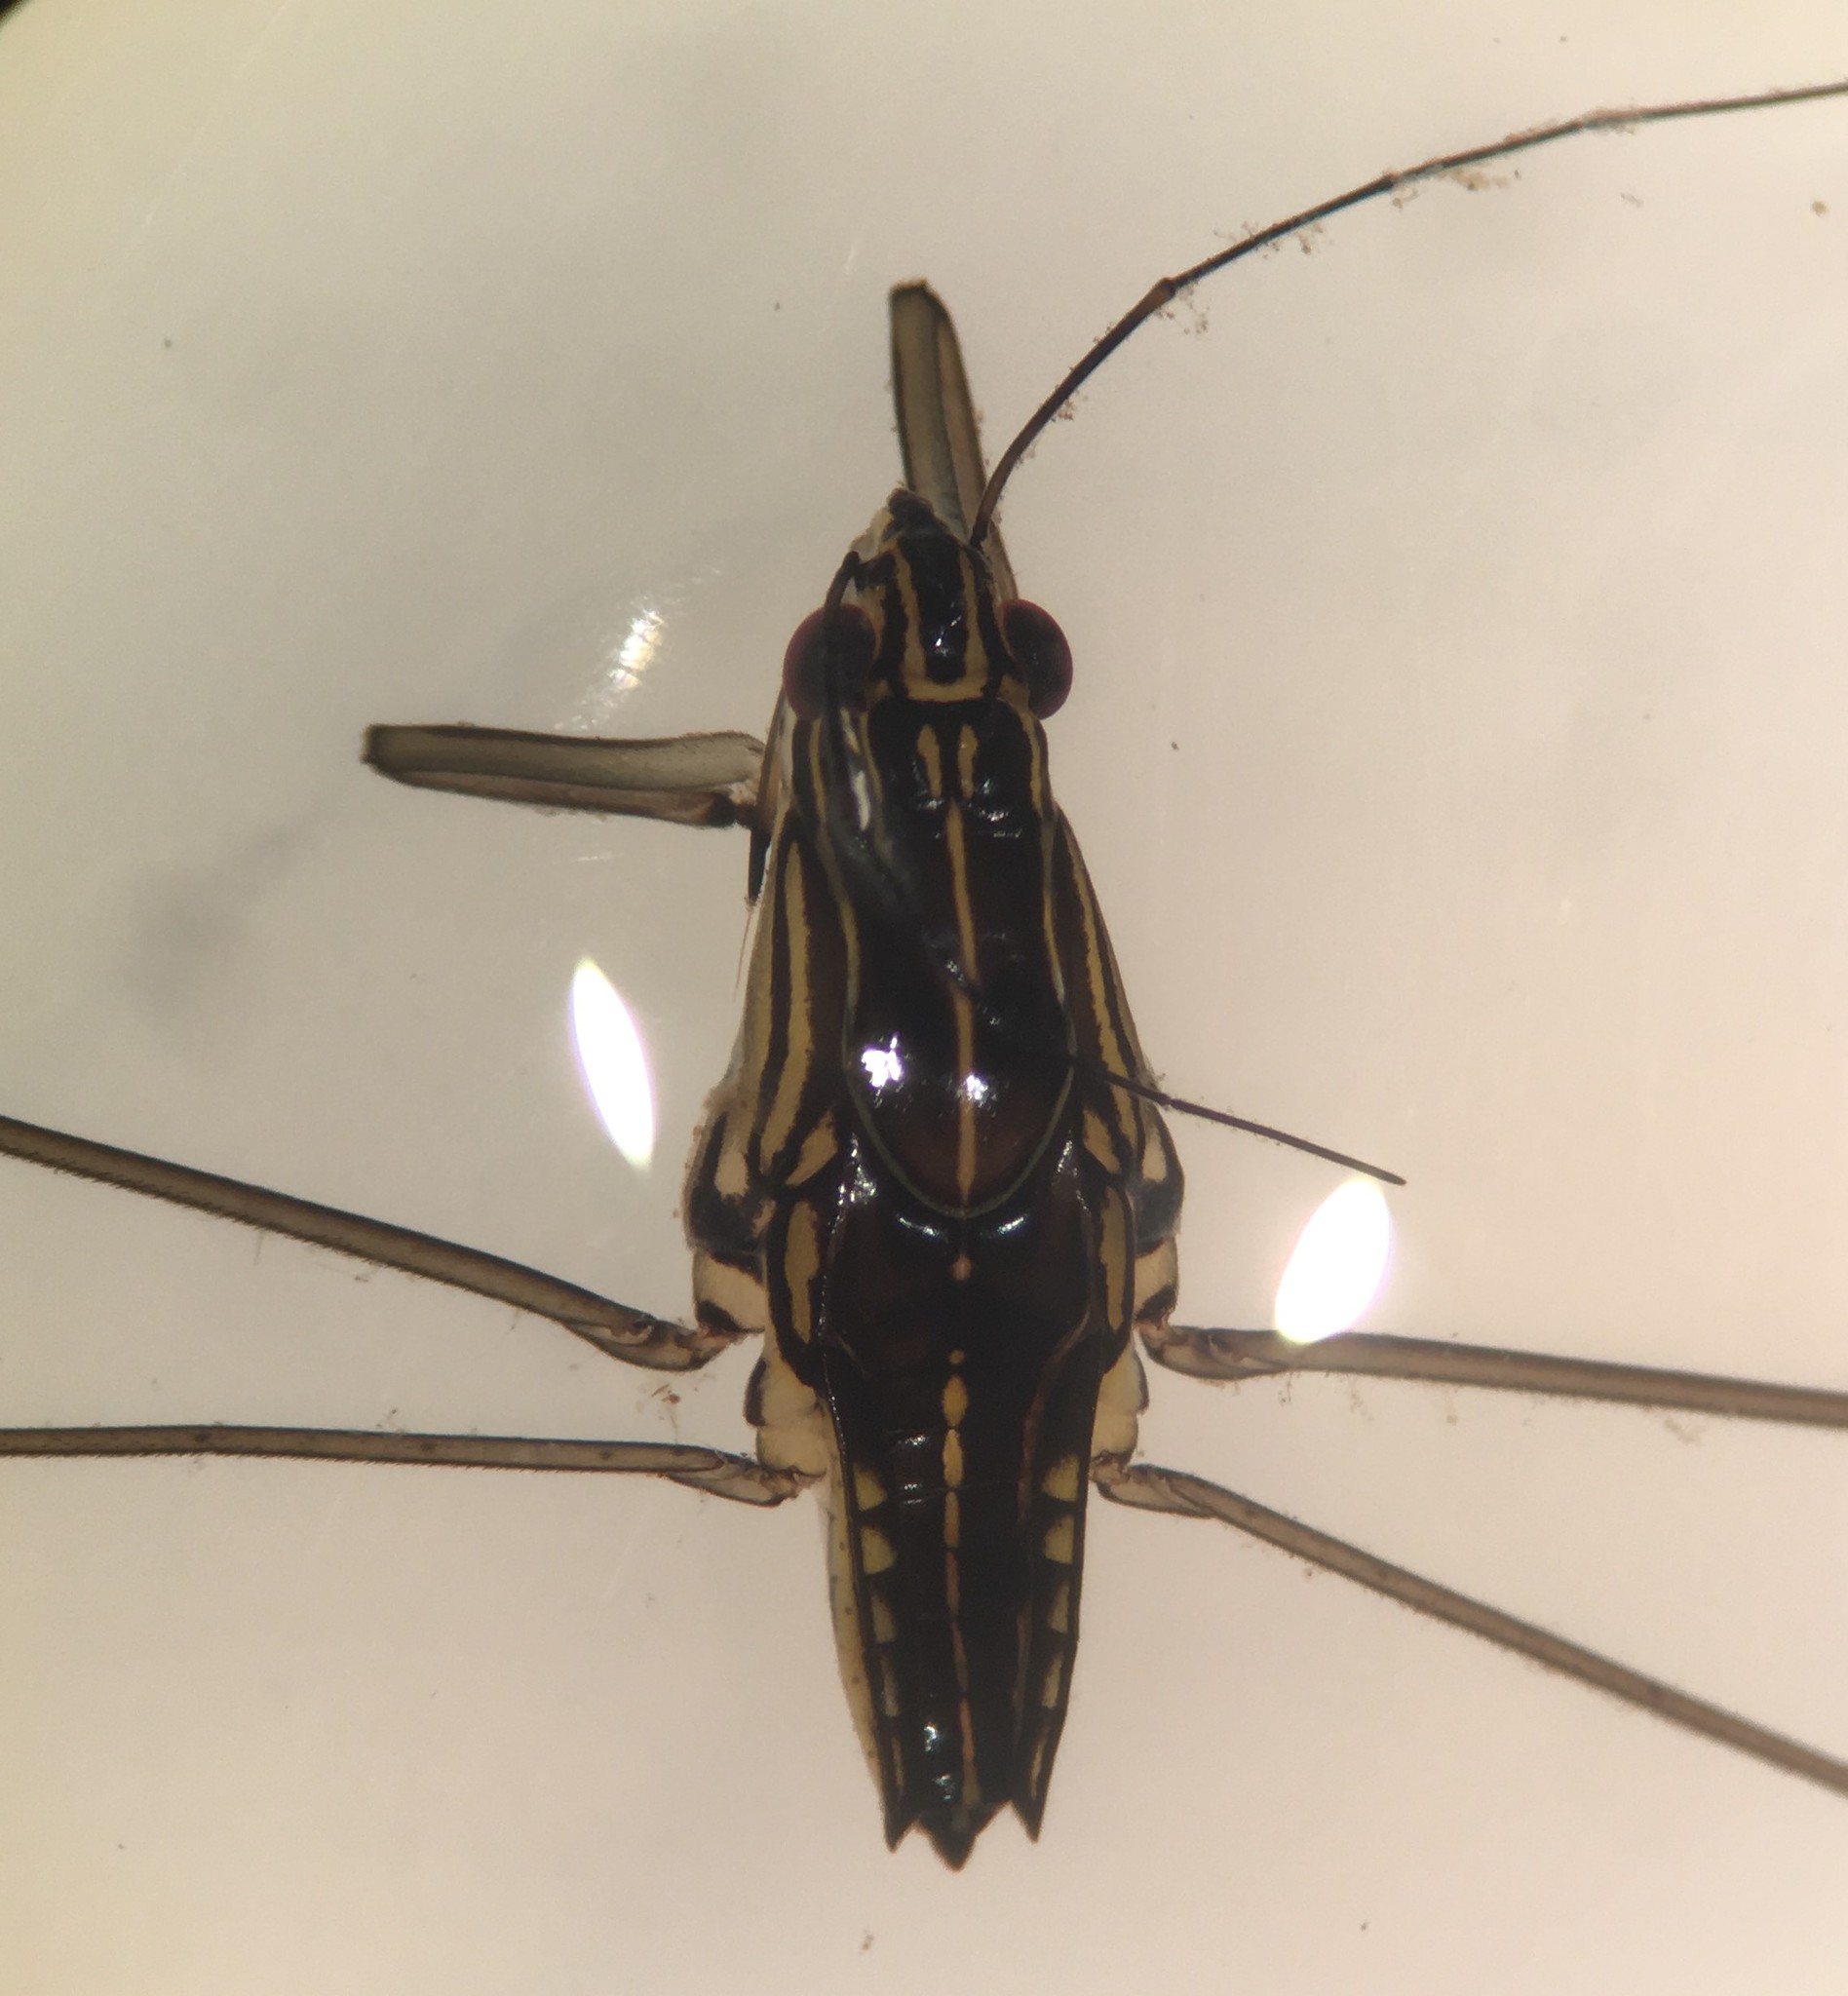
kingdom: Animalia
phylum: Arthropoda
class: Insecta
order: Hemiptera
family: Gerridae
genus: Limnogonus
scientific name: Limnogonus recens
